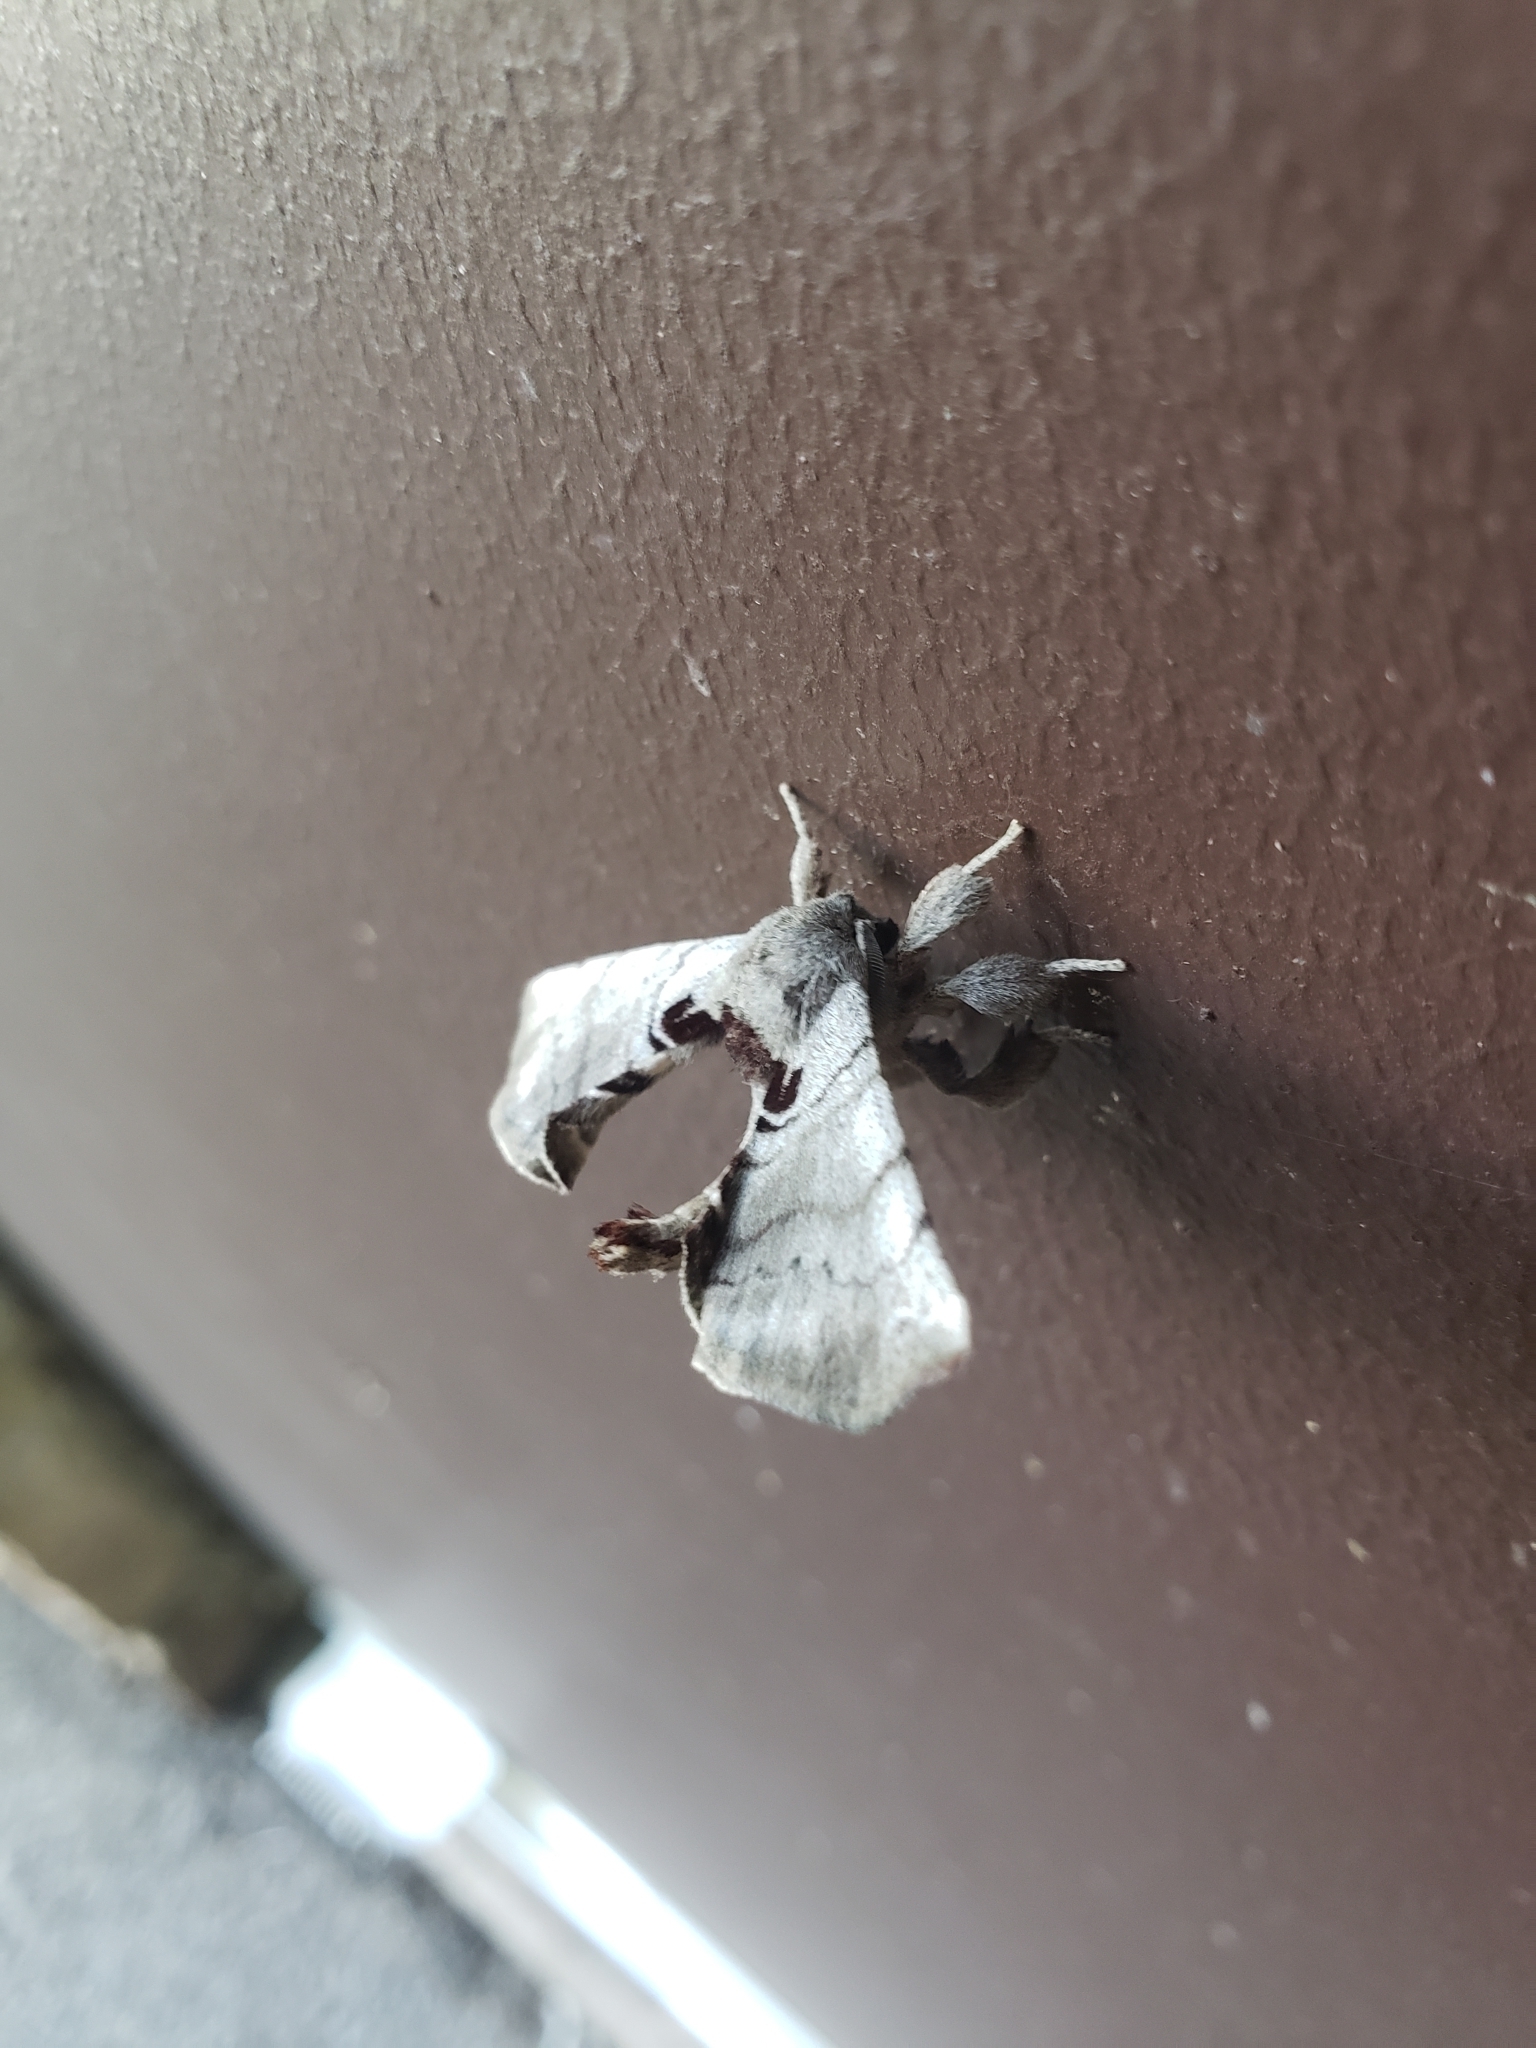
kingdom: Animalia
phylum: Arthropoda
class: Insecta
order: Lepidoptera
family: Apatelodidae
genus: Hygrochroa
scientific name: Hygrochroa Apatelodes torrefacta
